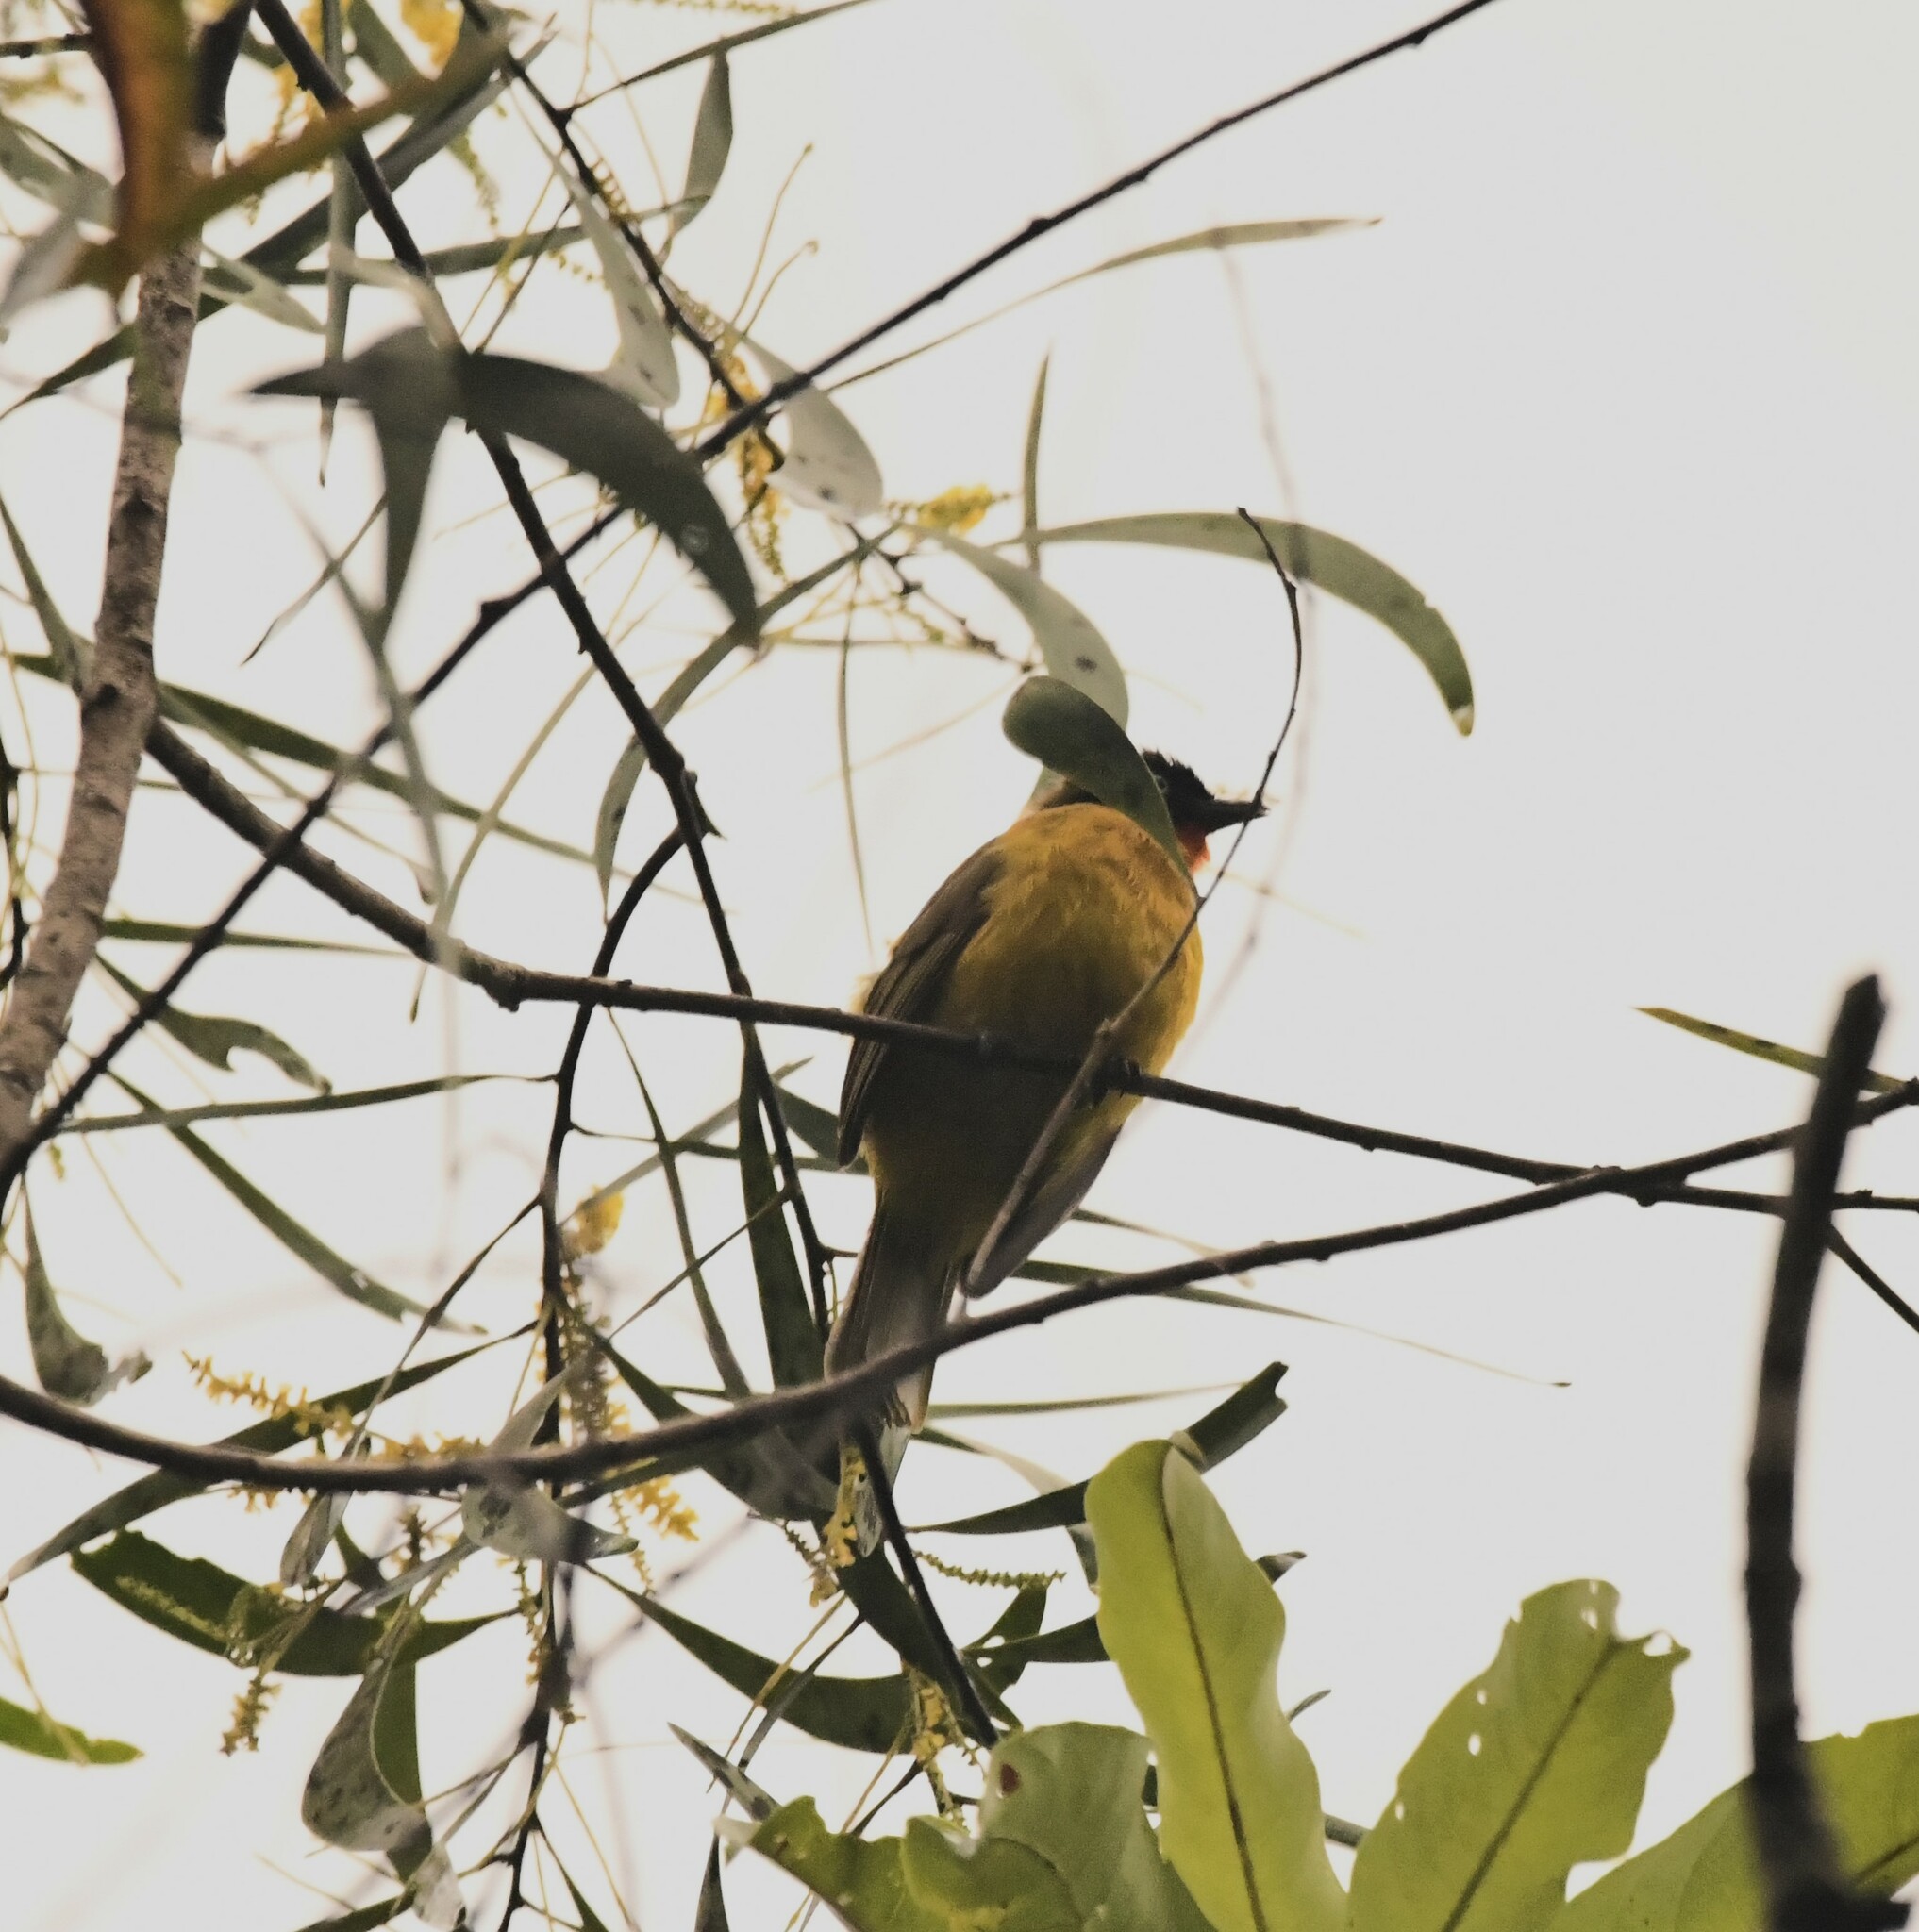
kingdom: Animalia
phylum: Chordata
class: Aves
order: Passeriformes
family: Pycnonotidae
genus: Pycnonotus
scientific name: Pycnonotus gularis
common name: Flame-throated bulbul
